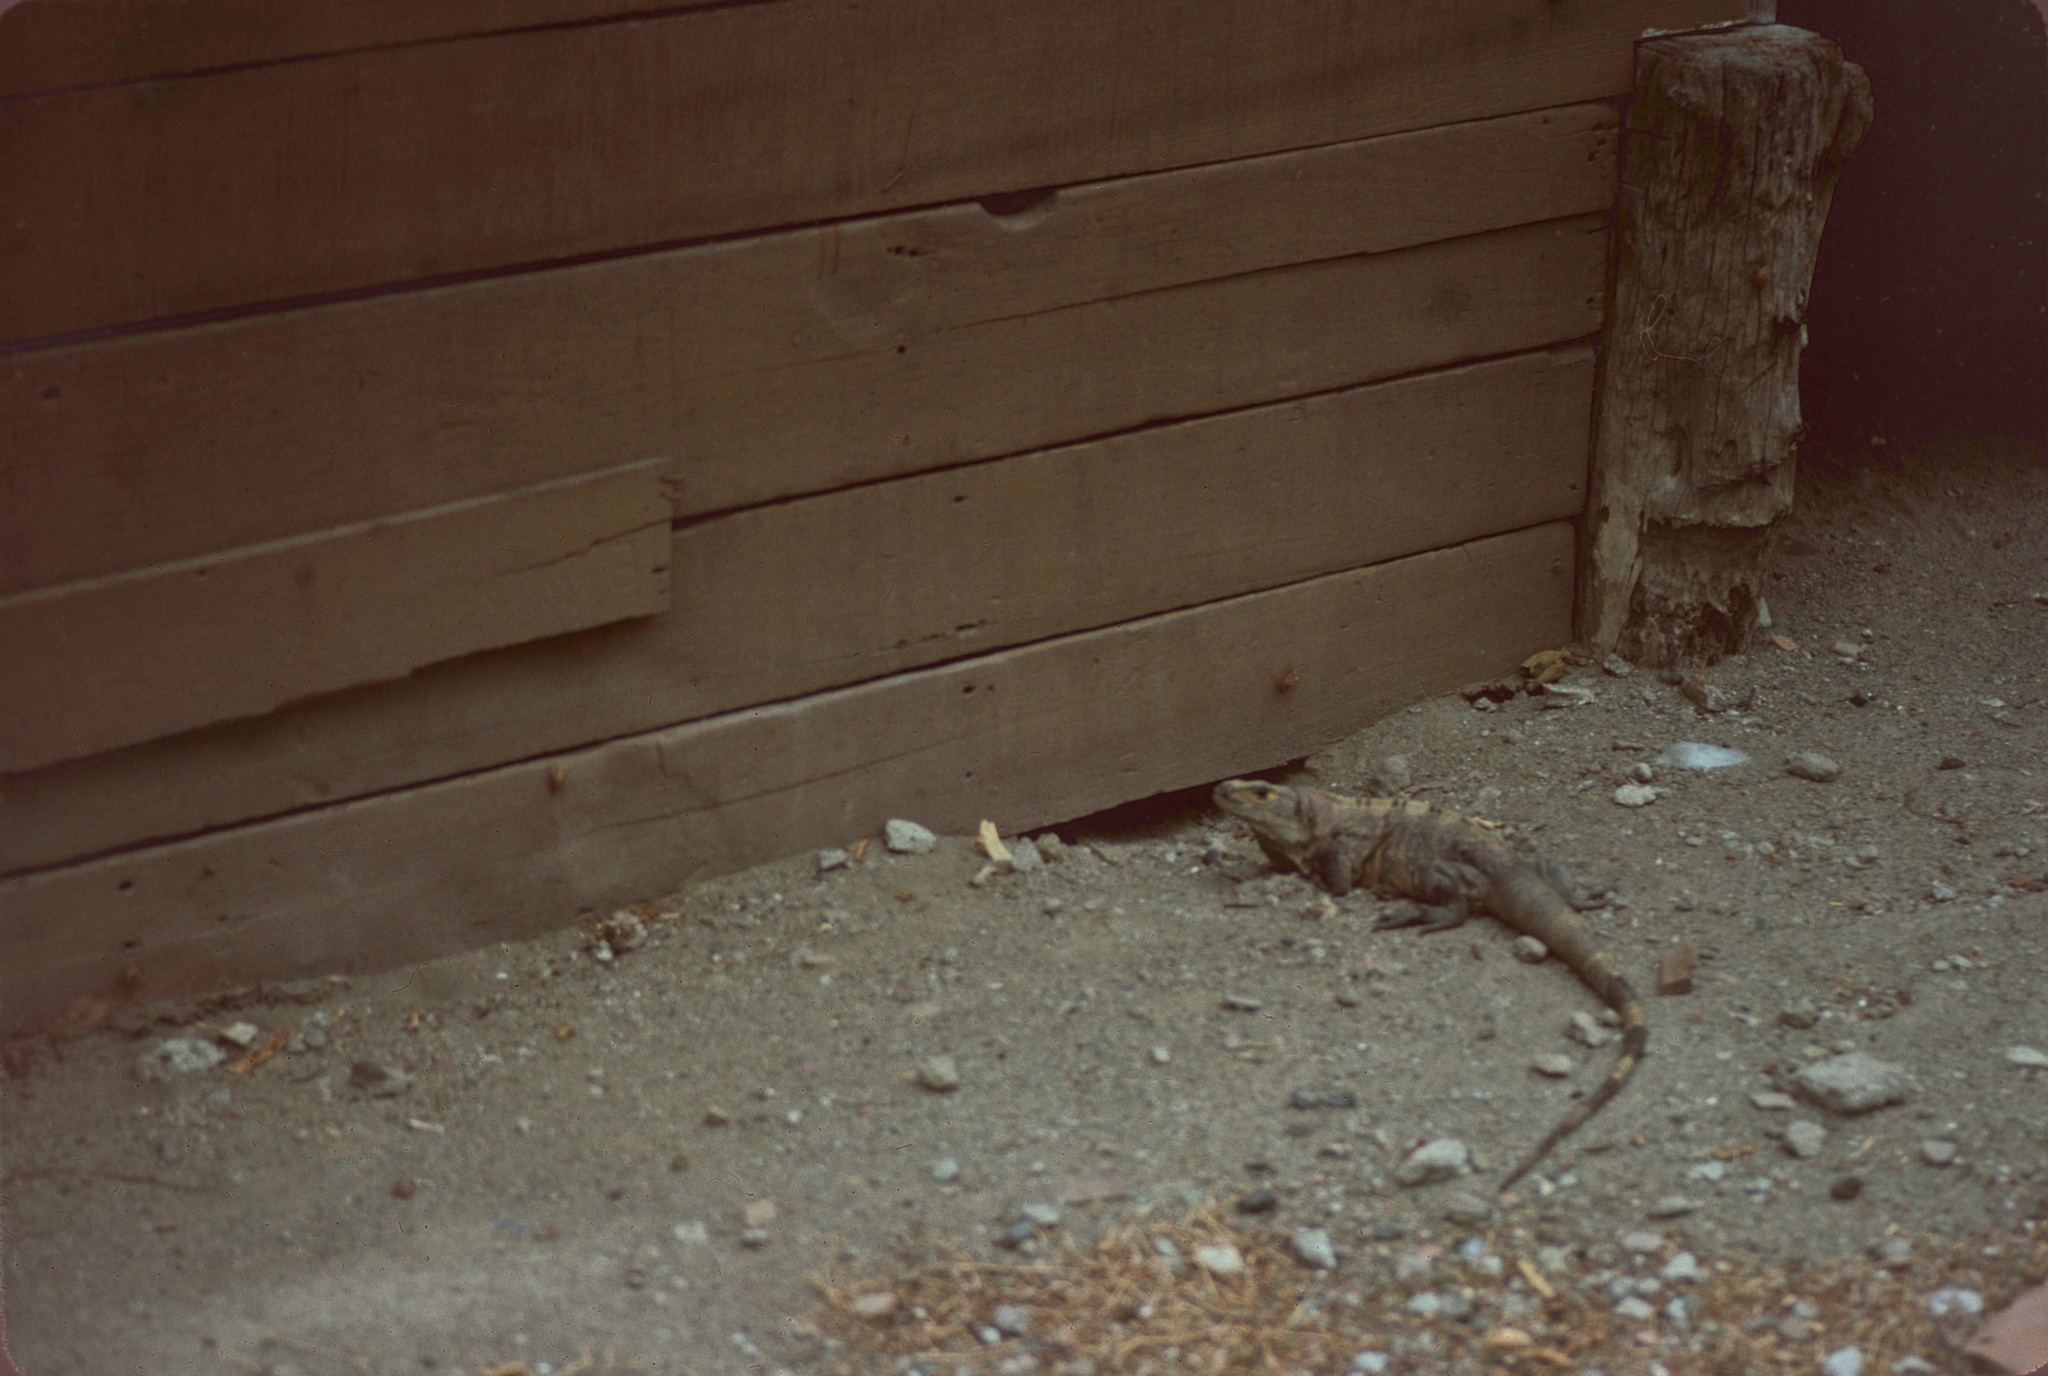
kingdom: Animalia
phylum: Chordata
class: Squamata
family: Iguanidae
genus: Ctenosaura
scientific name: Ctenosaura similis
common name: Black spiny-tailed iguana
